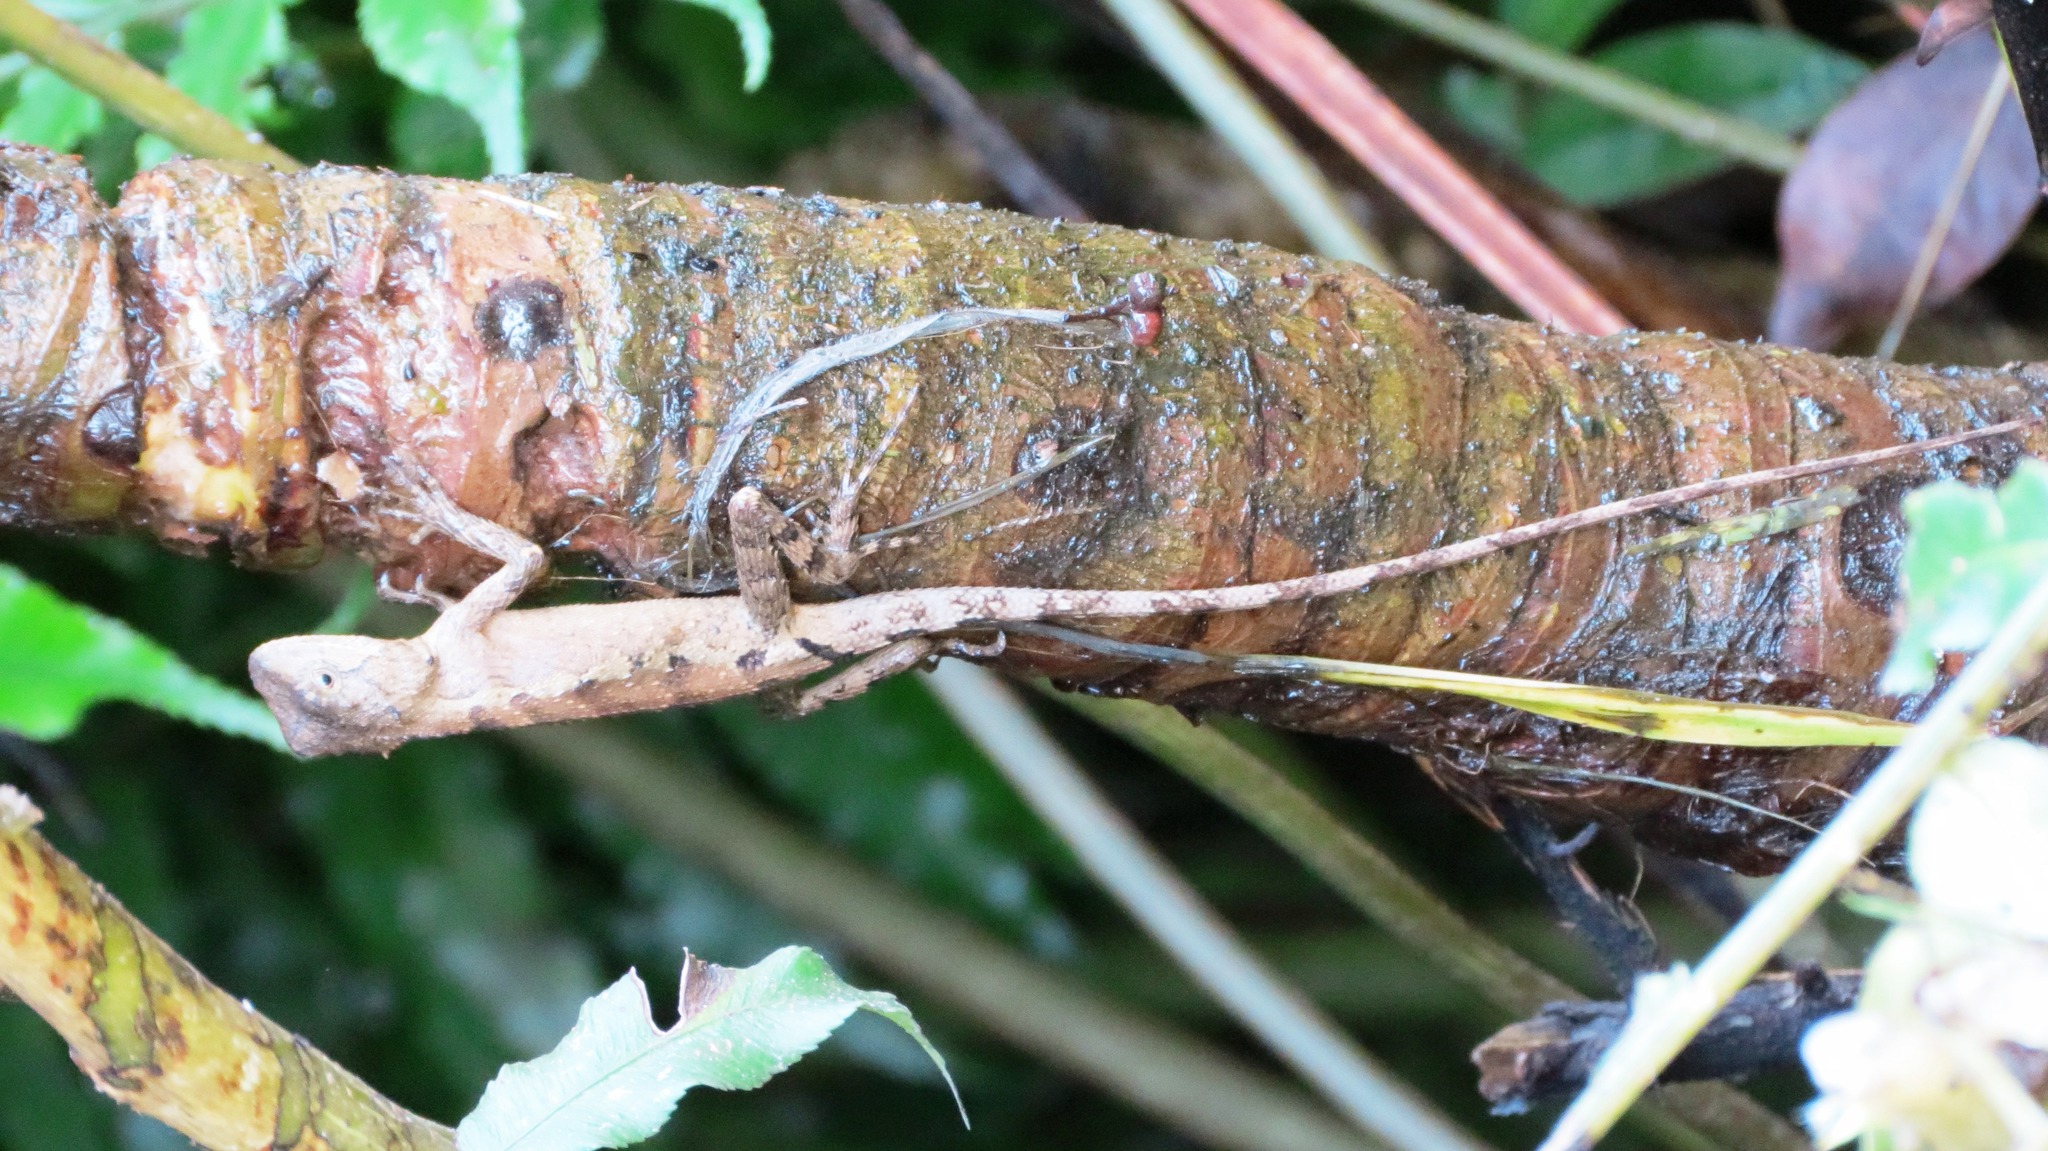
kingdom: Animalia
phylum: Chordata
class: Squamata
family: Agamidae
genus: Diploderma
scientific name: Diploderma swinhonis
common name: Taiwan japalure
